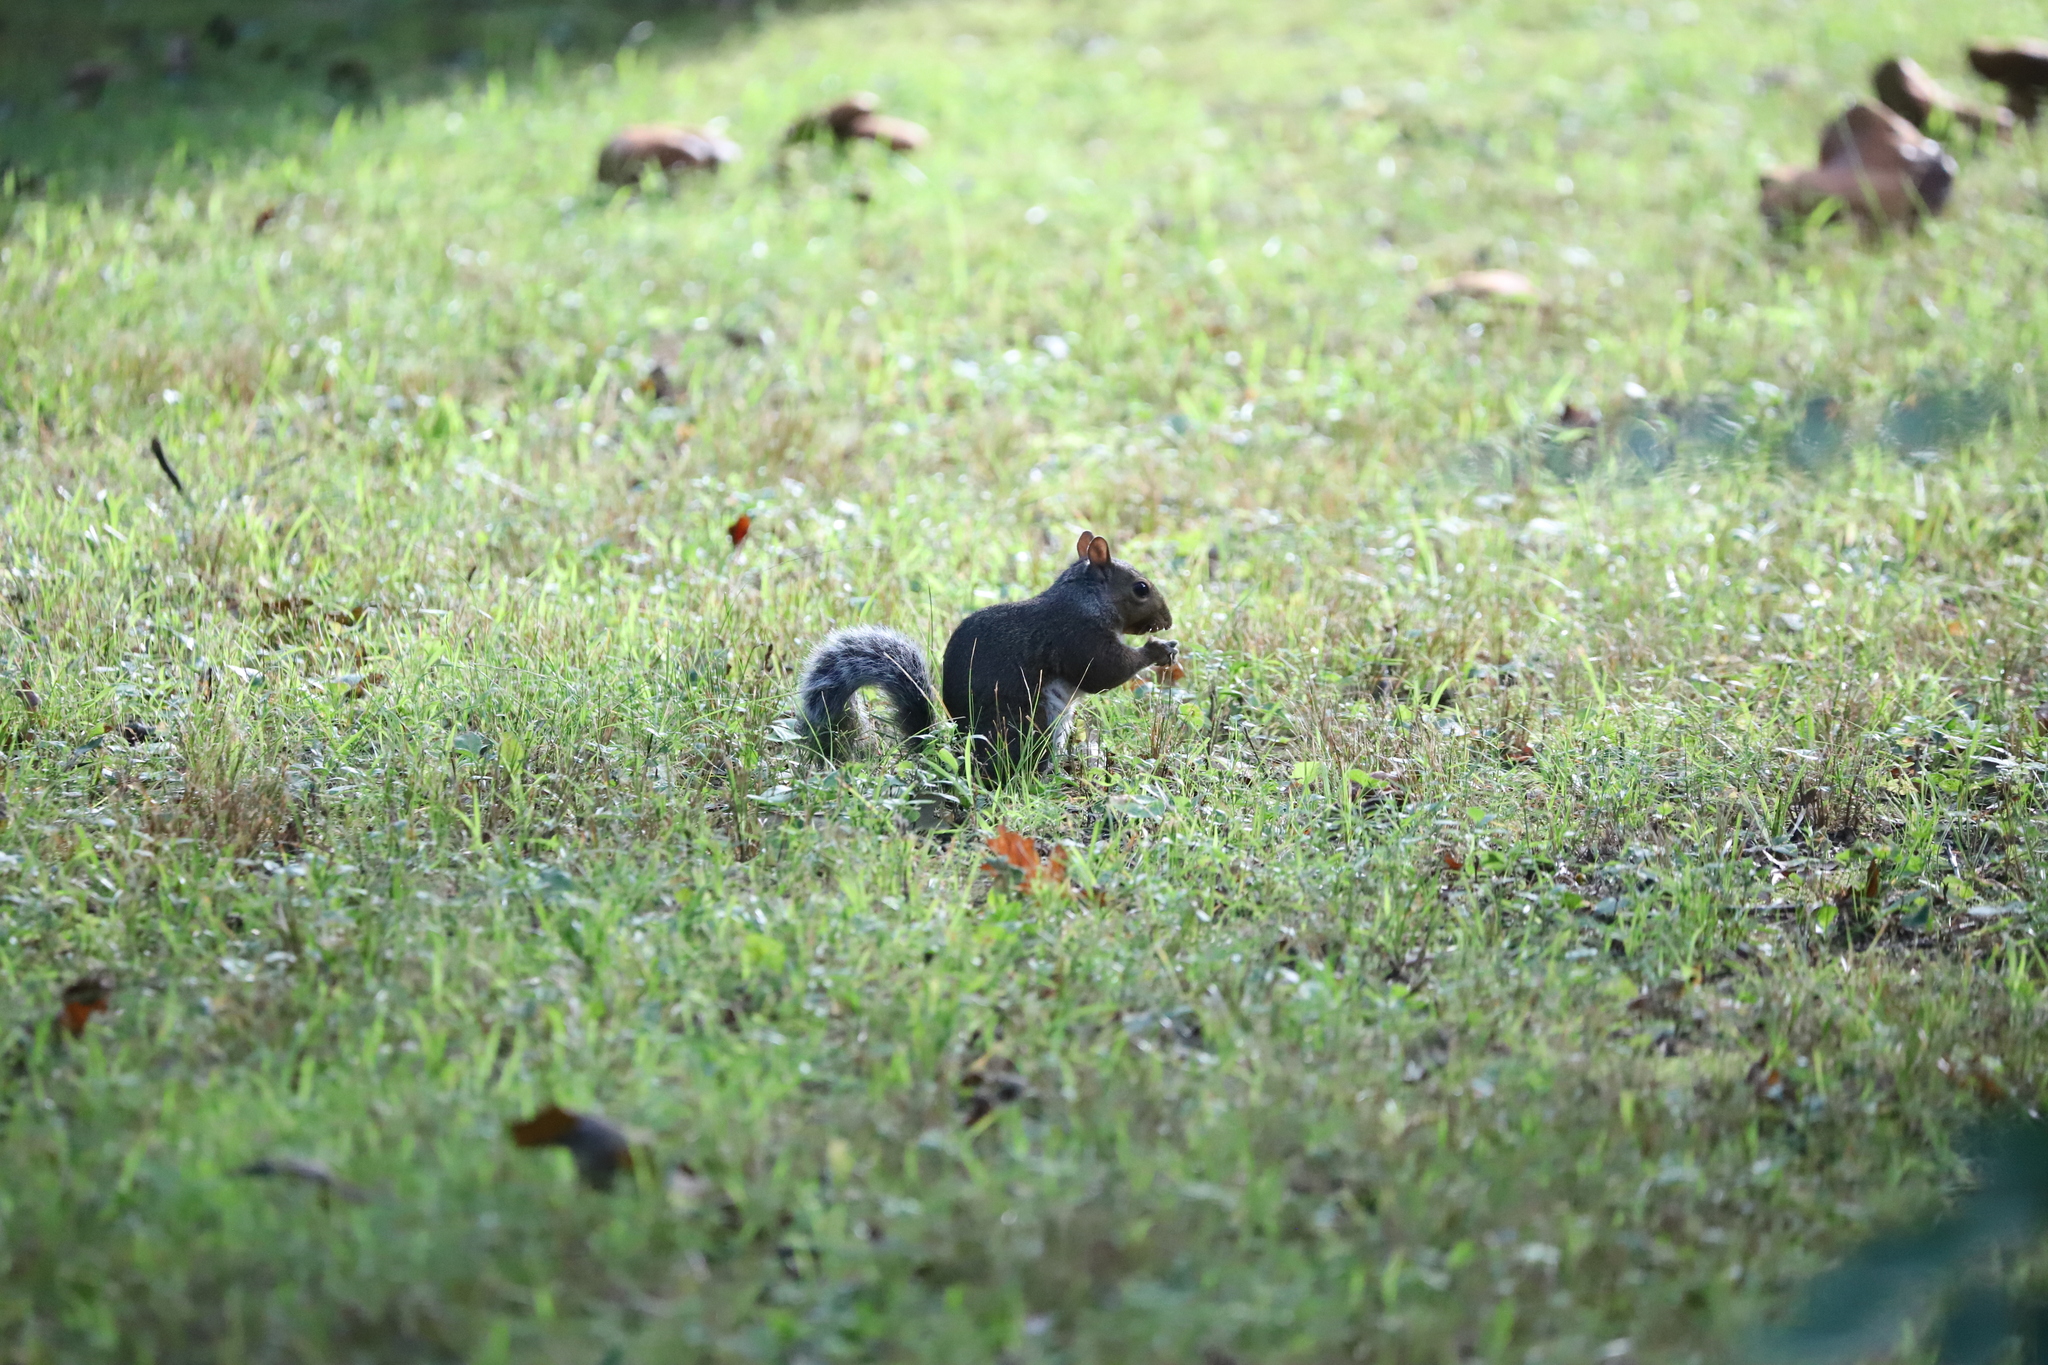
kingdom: Animalia
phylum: Chordata
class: Mammalia
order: Rodentia
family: Sciuridae
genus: Sciurus
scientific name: Sciurus carolinensis
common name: Eastern gray squirrel
